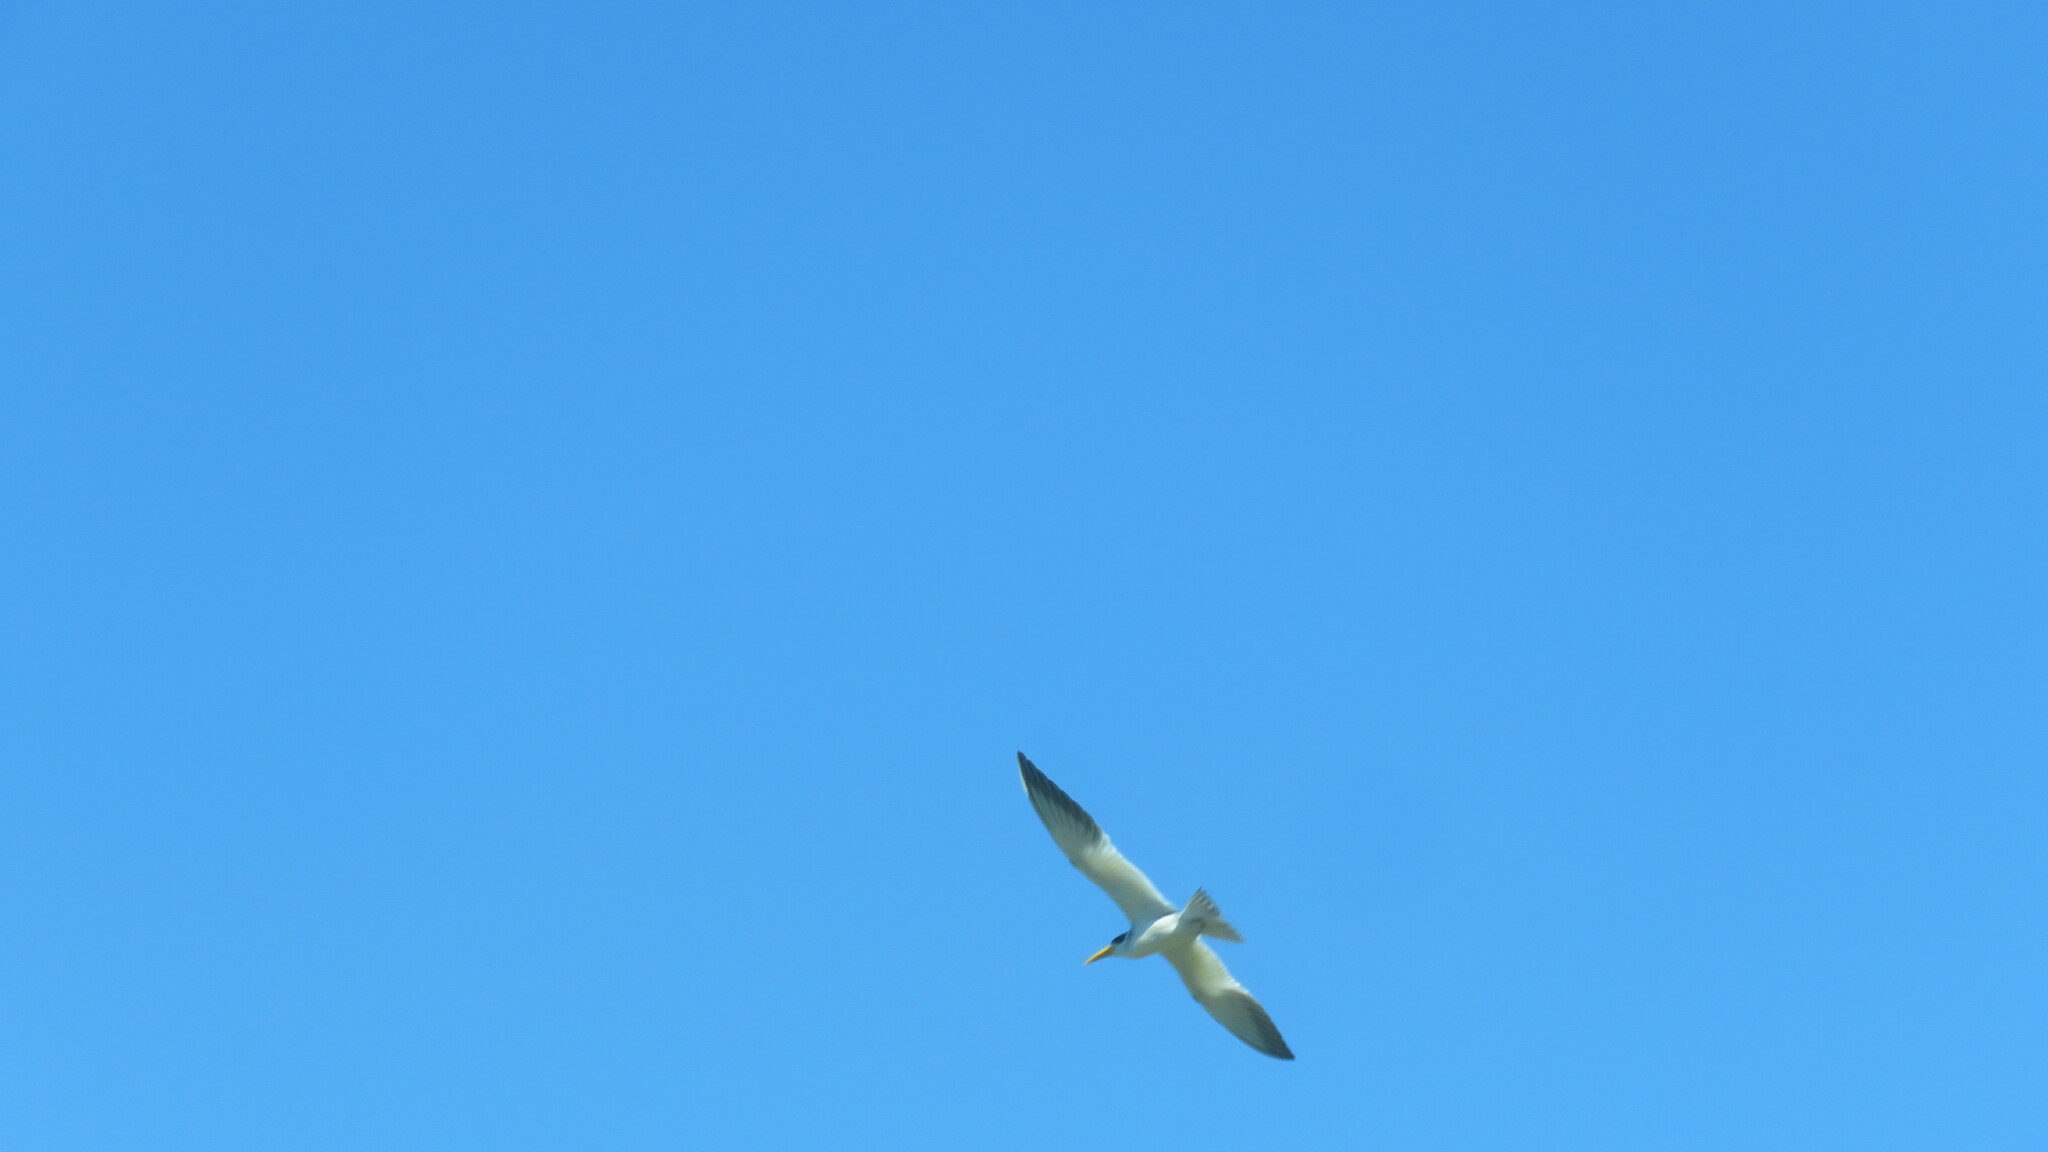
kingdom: Animalia
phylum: Chordata
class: Aves
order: Charadriiformes
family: Laridae
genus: Phaetusa
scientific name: Phaetusa simplex
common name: Large-billed tern
